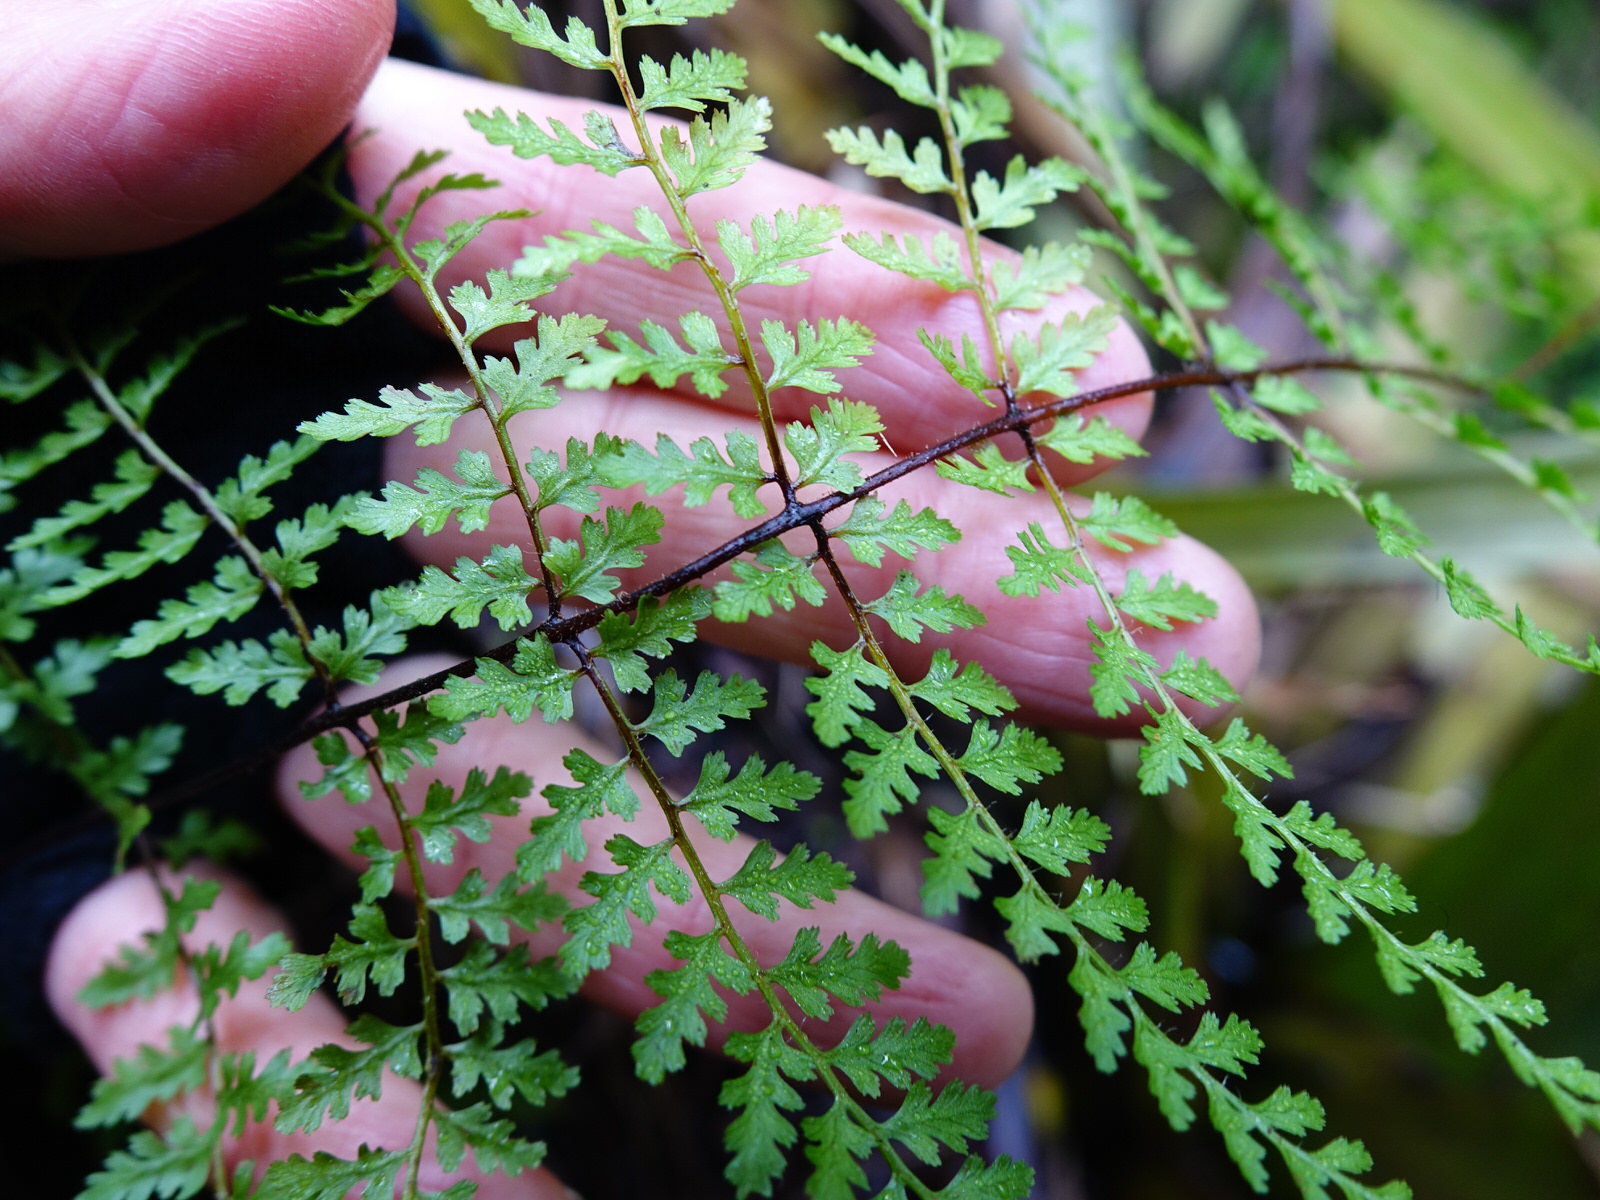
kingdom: Plantae
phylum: Tracheophyta
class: Polypodiopsida
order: Polypodiales
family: Dennstaedtiaceae
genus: Hiya
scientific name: Hiya distans
